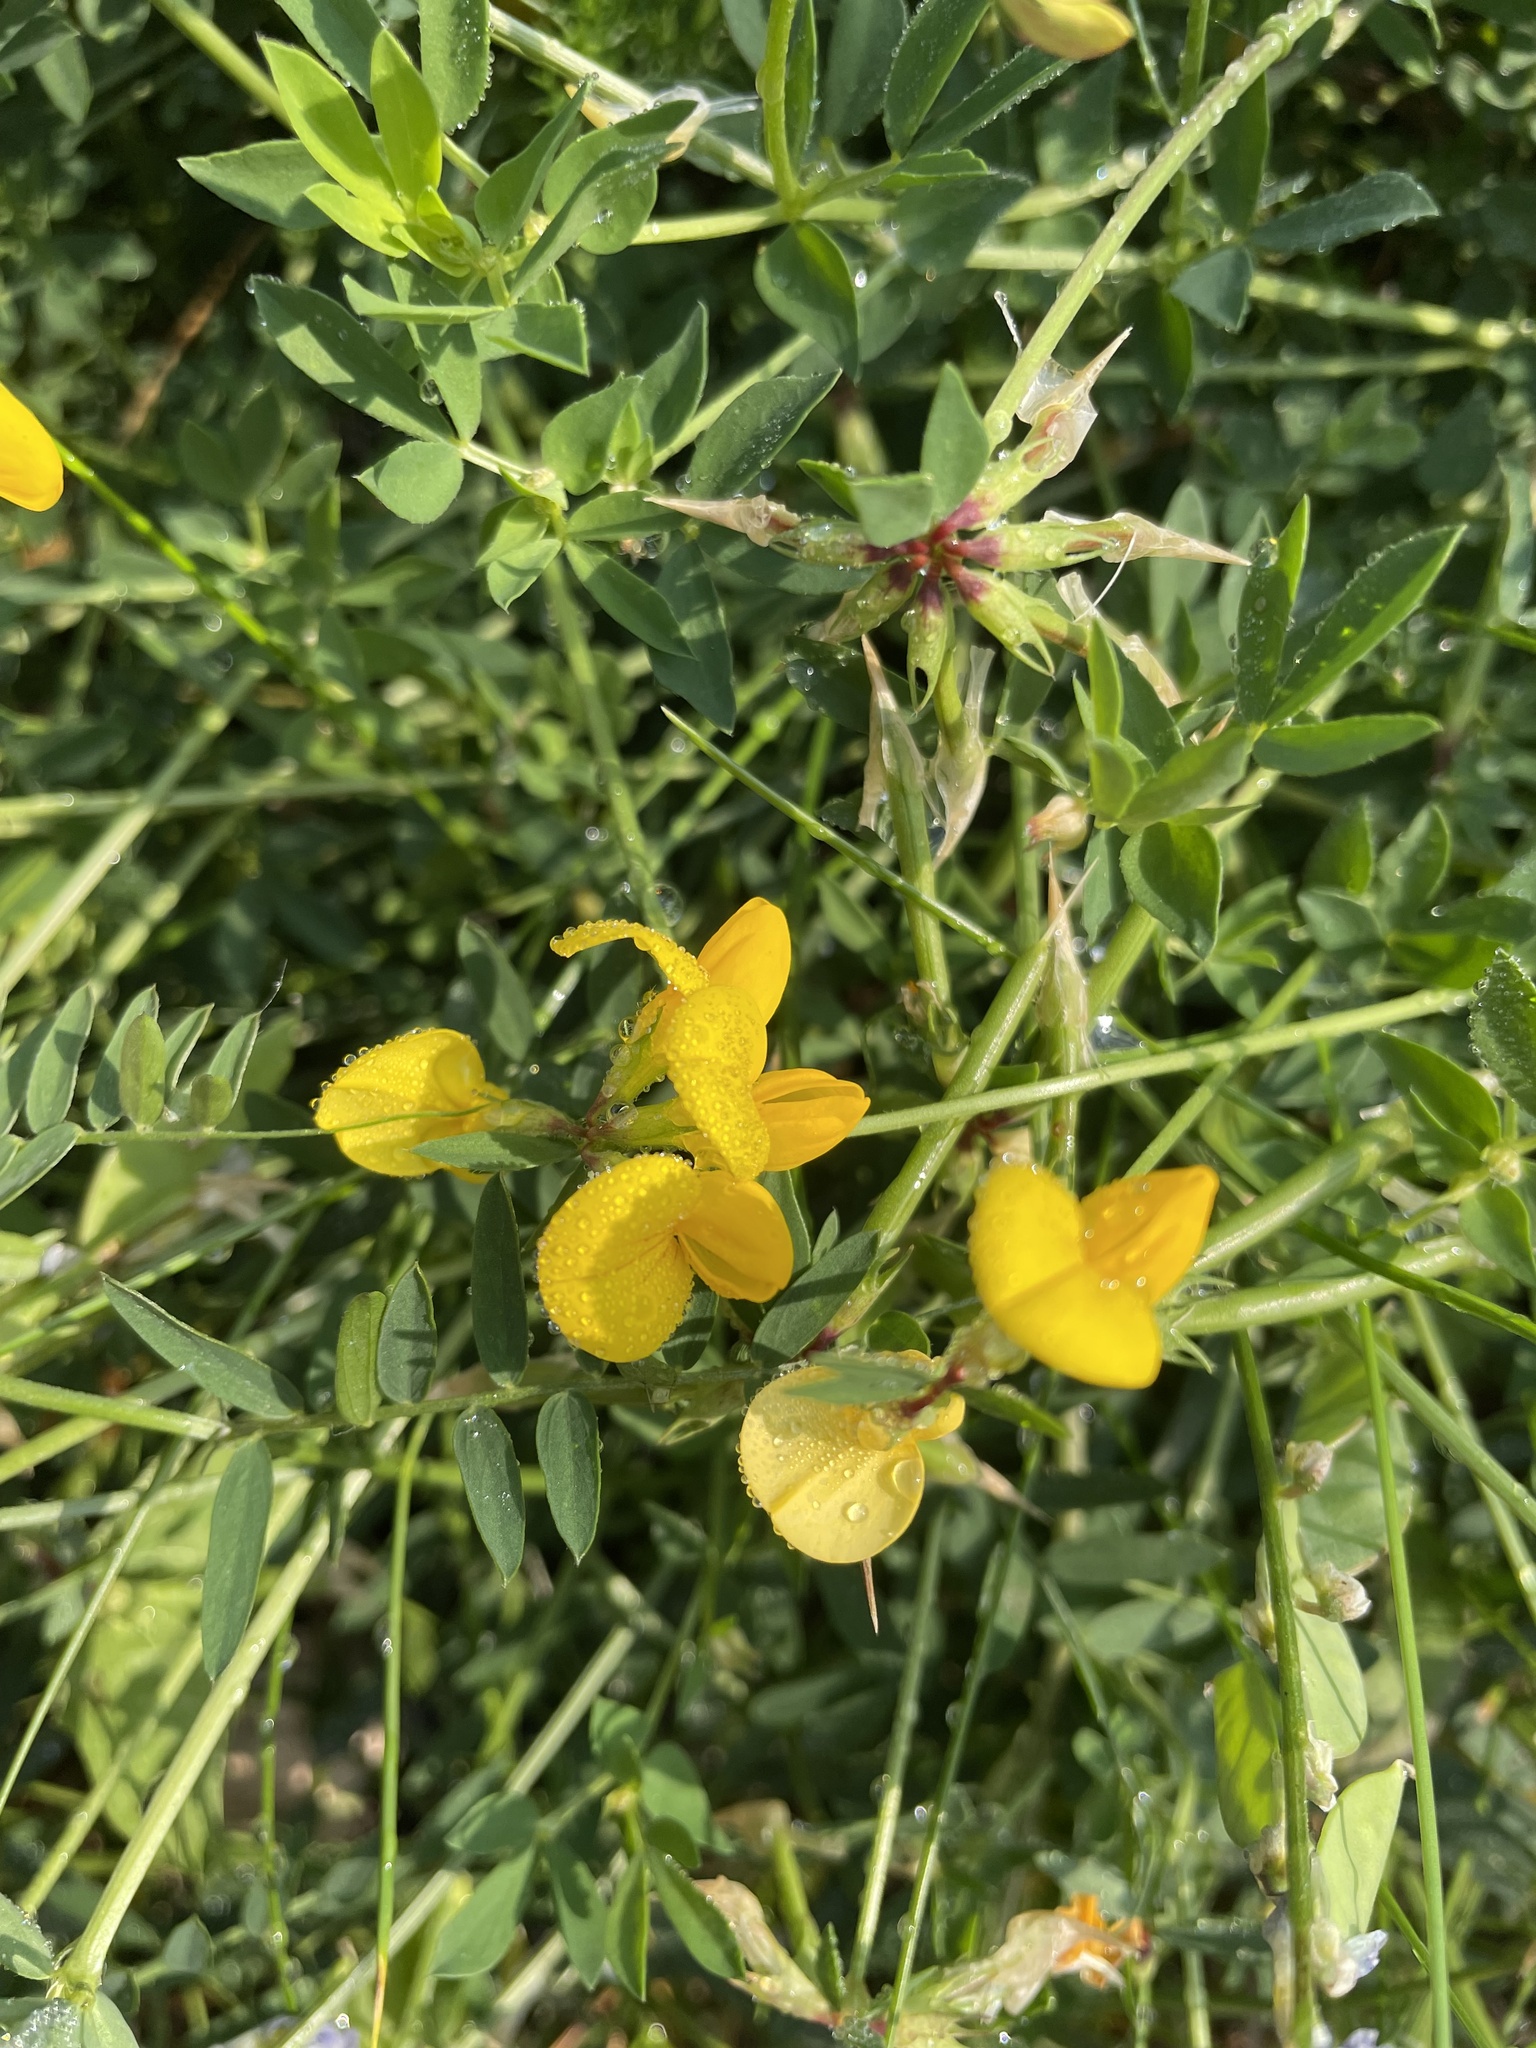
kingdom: Plantae
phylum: Tracheophyta
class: Magnoliopsida
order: Fabales
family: Fabaceae
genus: Lotus
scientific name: Lotus corniculatus
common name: Common bird's-foot-trefoil
